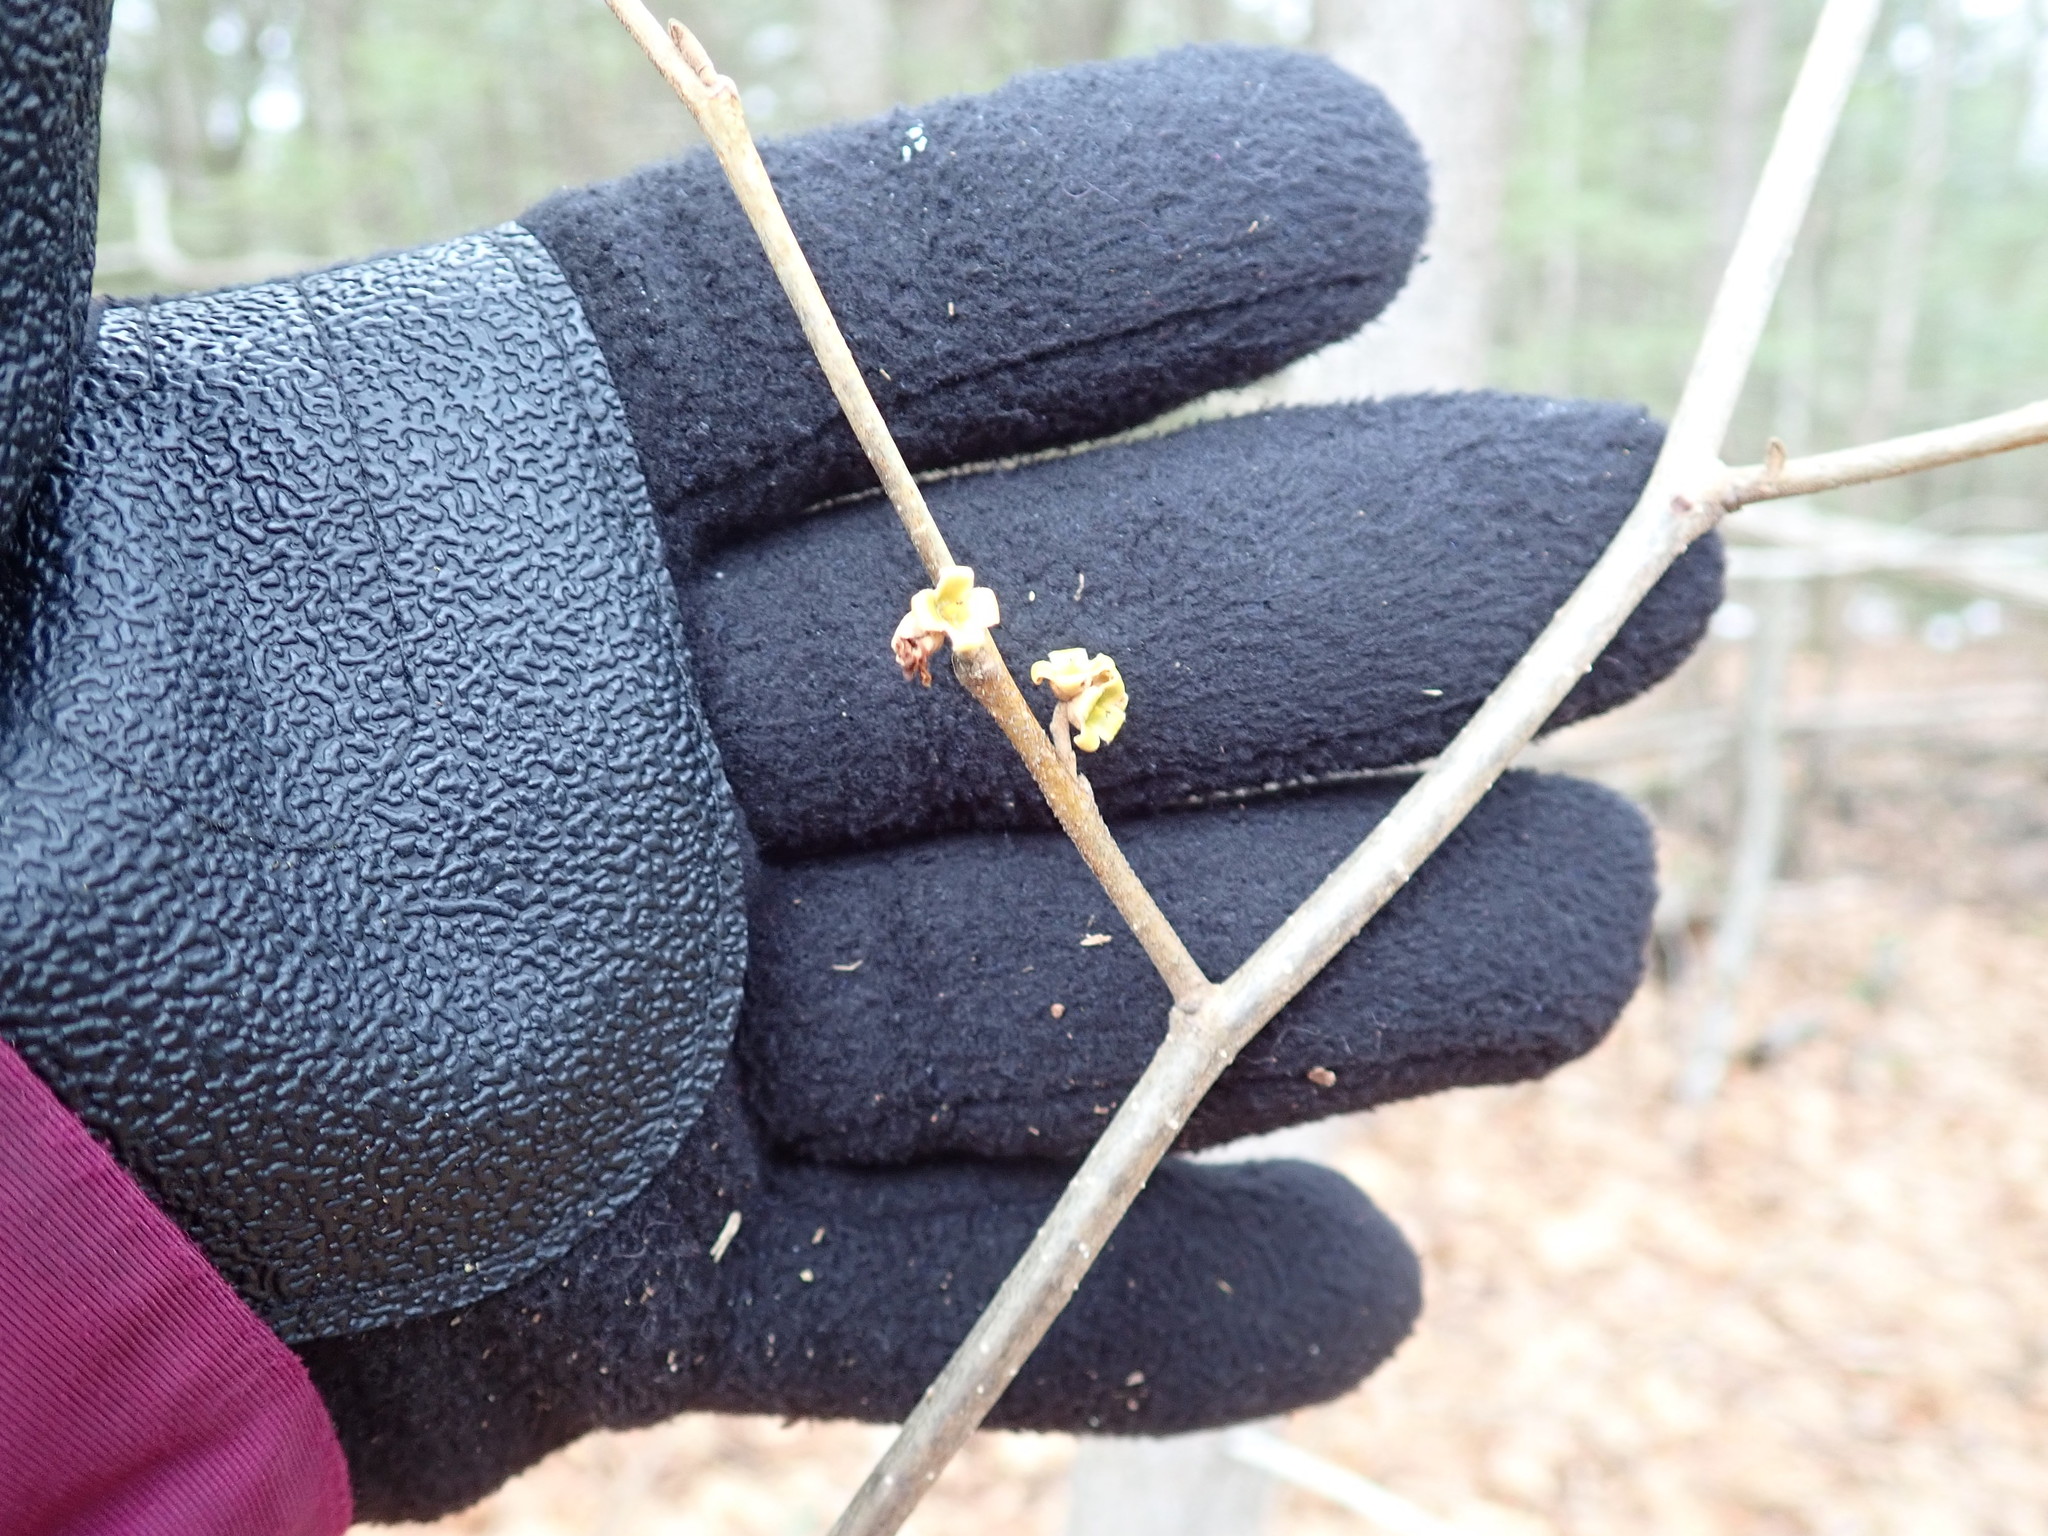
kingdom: Plantae
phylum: Tracheophyta
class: Magnoliopsida
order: Saxifragales
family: Hamamelidaceae
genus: Hamamelis
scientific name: Hamamelis virginiana
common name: Witch-hazel
